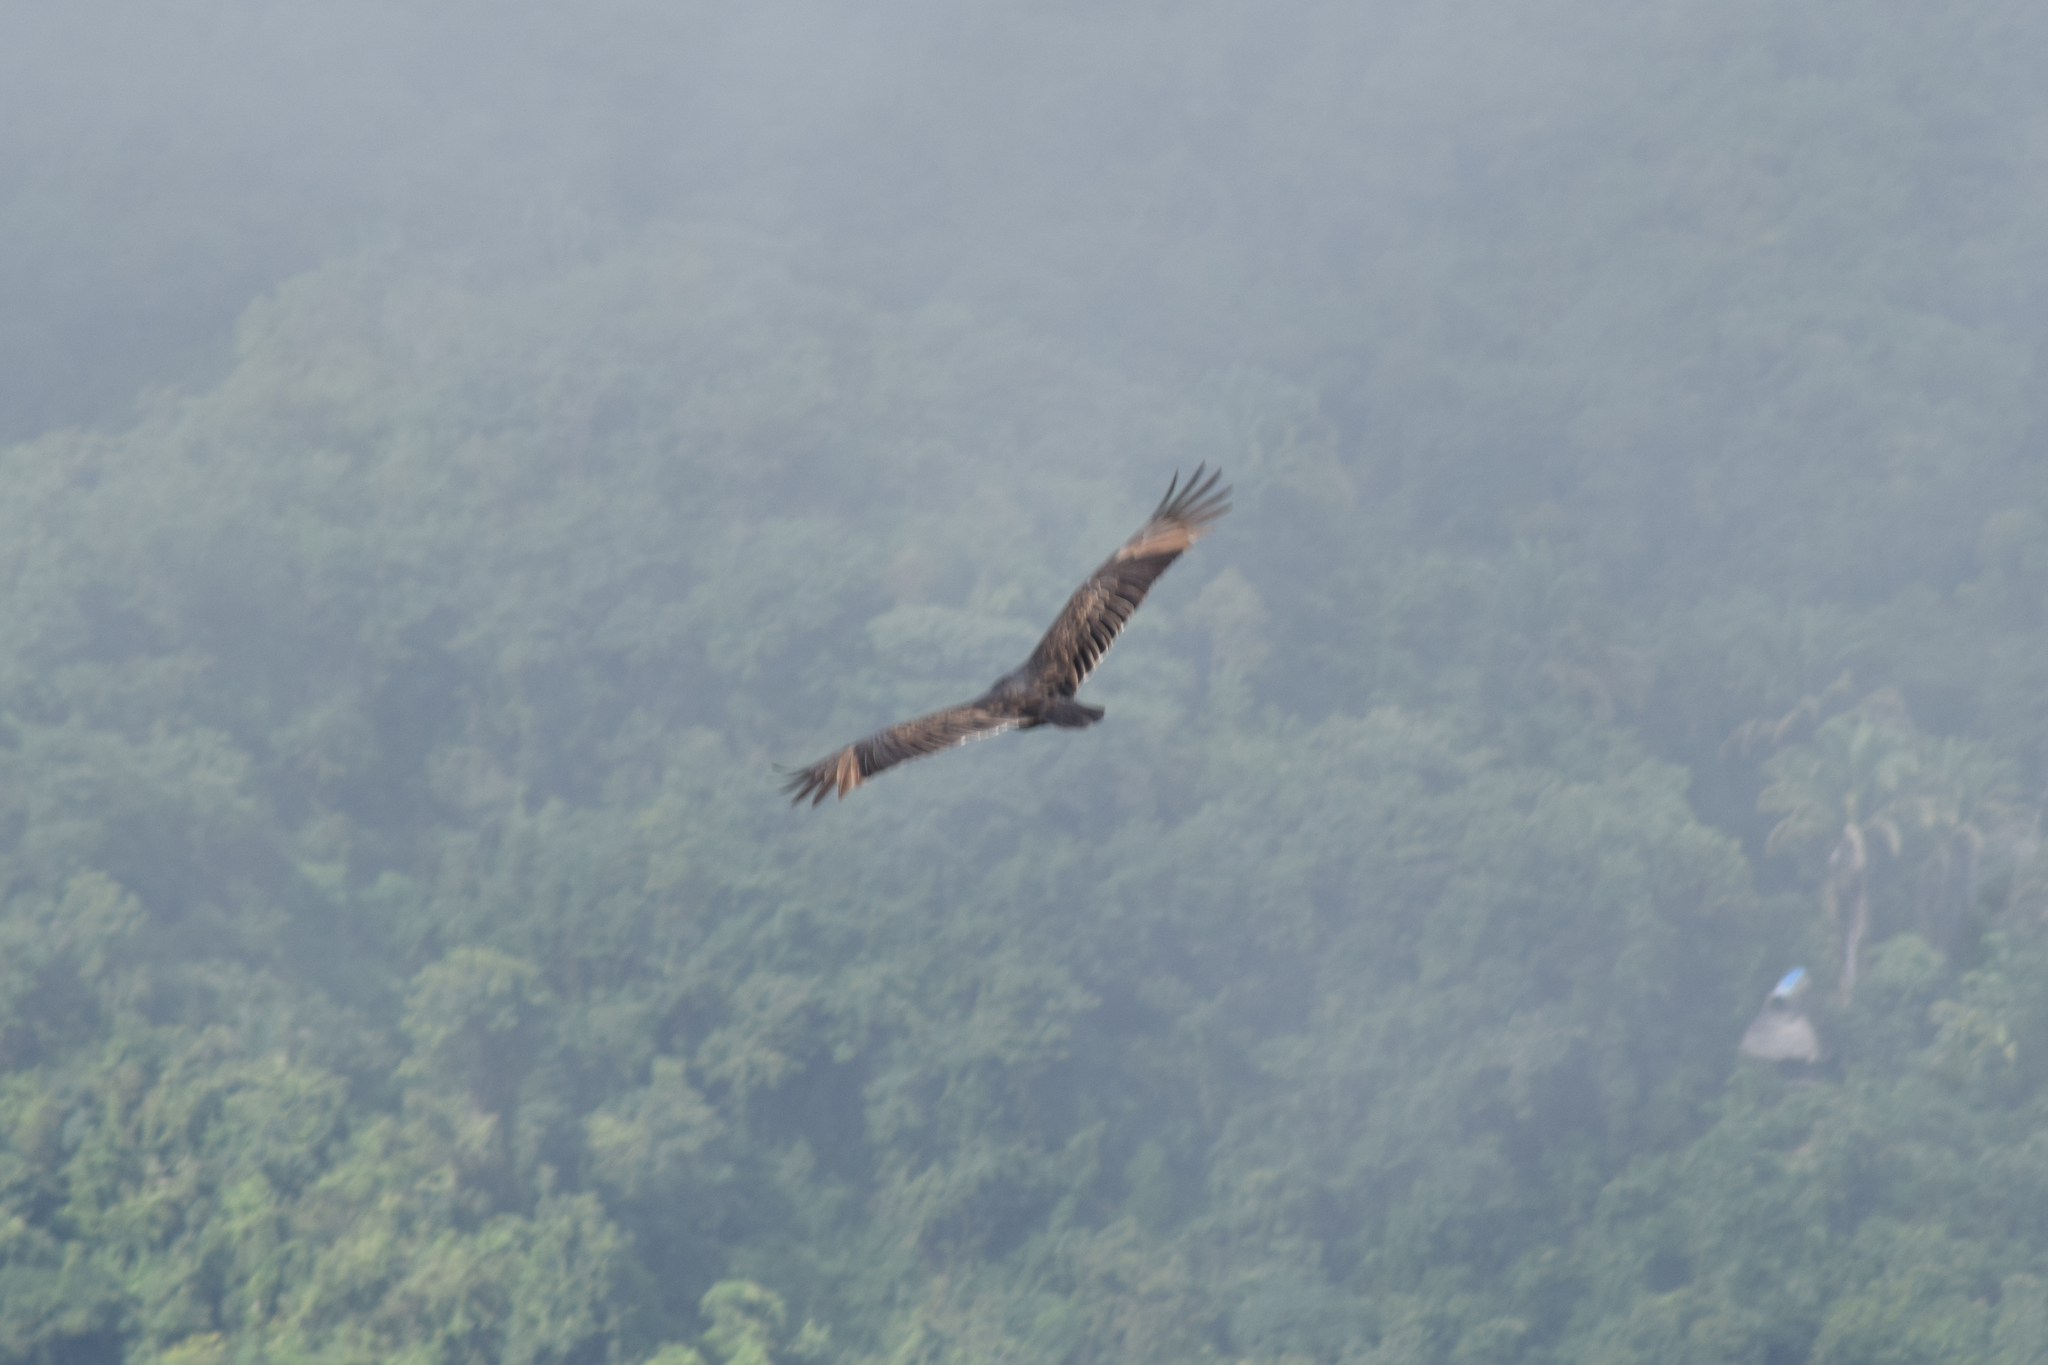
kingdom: Animalia
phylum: Chordata
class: Aves
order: Accipitriformes
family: Cathartidae
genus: Cathartes
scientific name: Cathartes aura
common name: Turkey vulture
